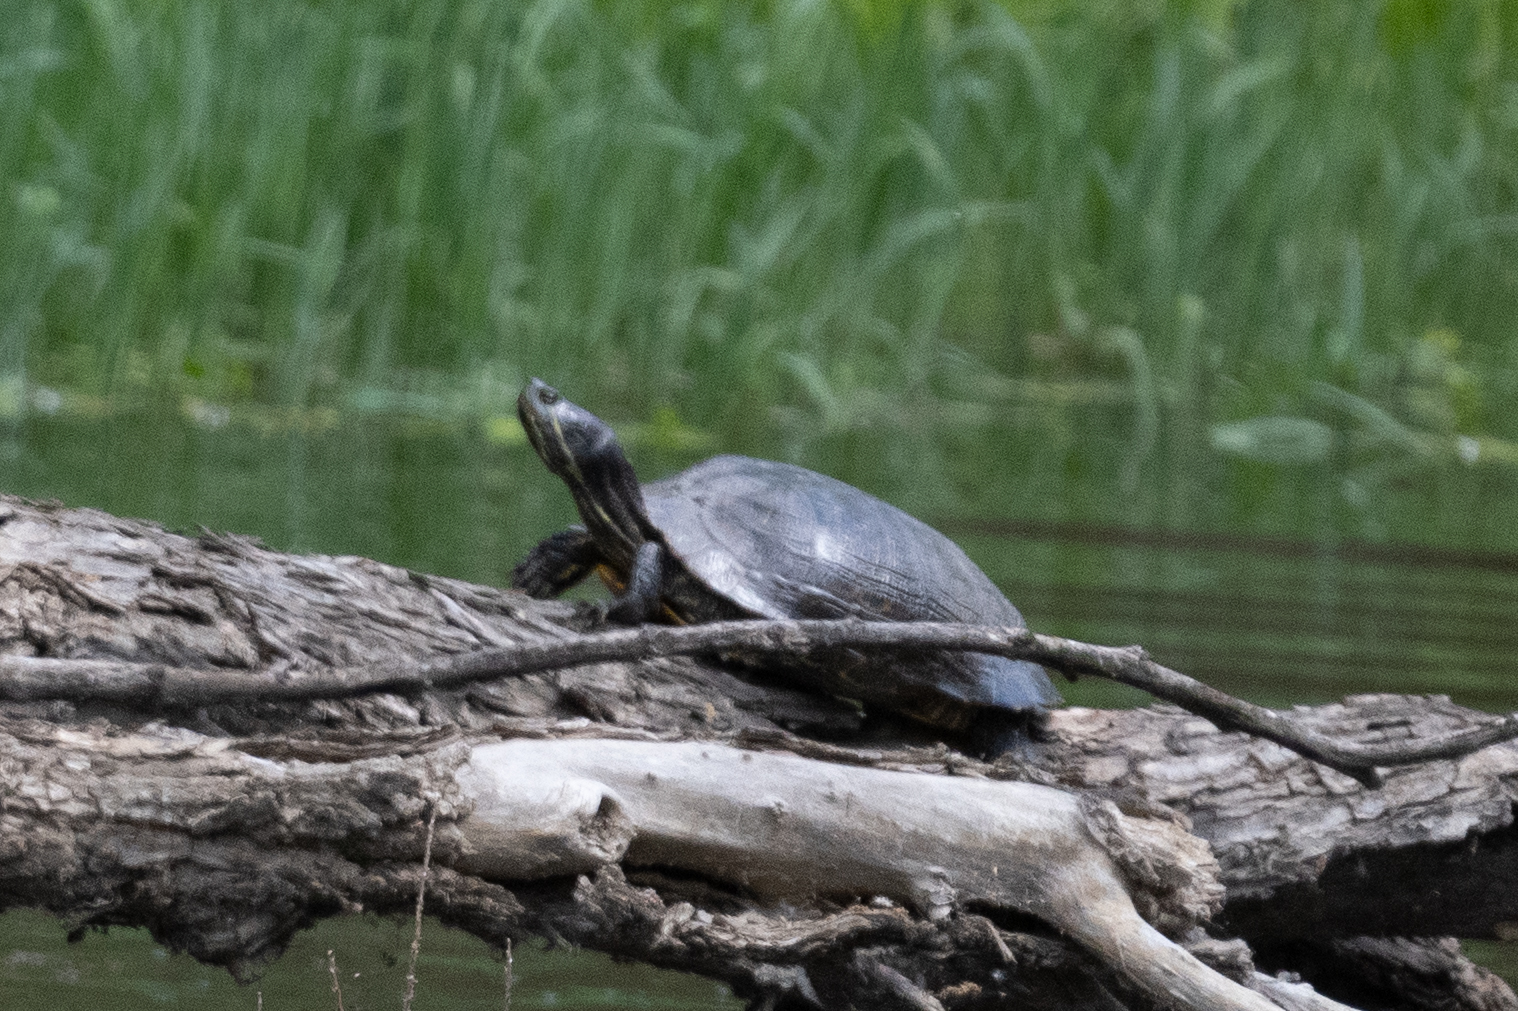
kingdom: Animalia
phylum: Chordata
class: Testudines
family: Emydidae
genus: Trachemys
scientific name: Trachemys scripta
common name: Slider
